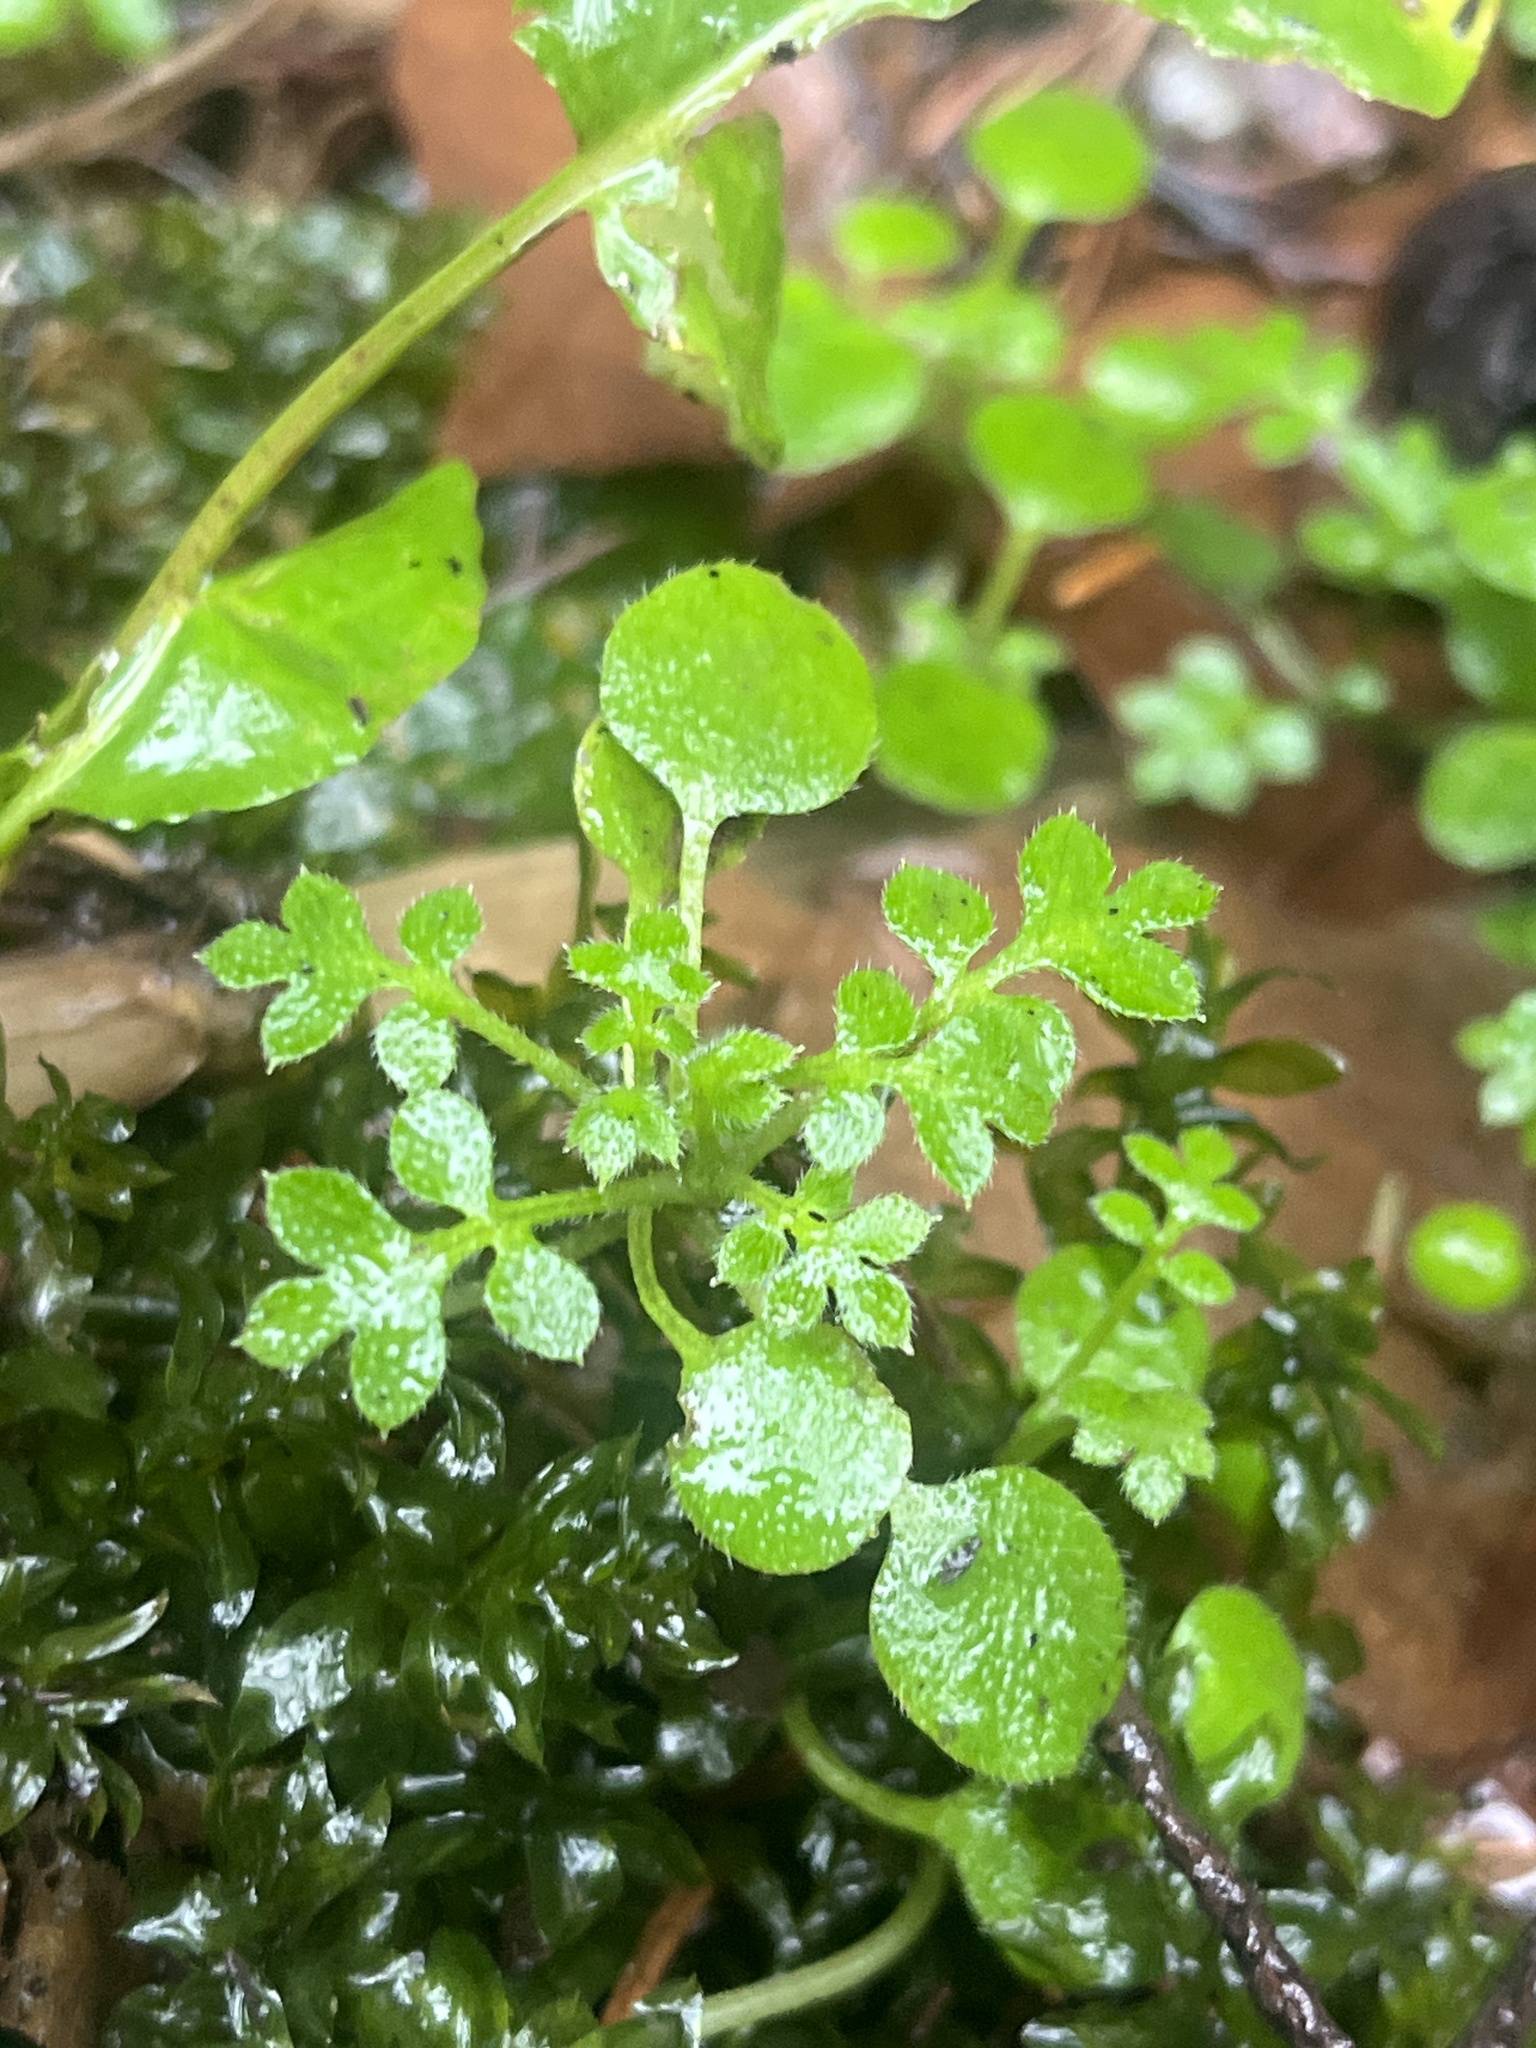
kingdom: Plantae
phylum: Tracheophyta
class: Magnoliopsida
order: Boraginales
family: Hydrophyllaceae
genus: Nemophila
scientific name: Nemophila parviflora
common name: Small-flowered baby-blue-eyes
